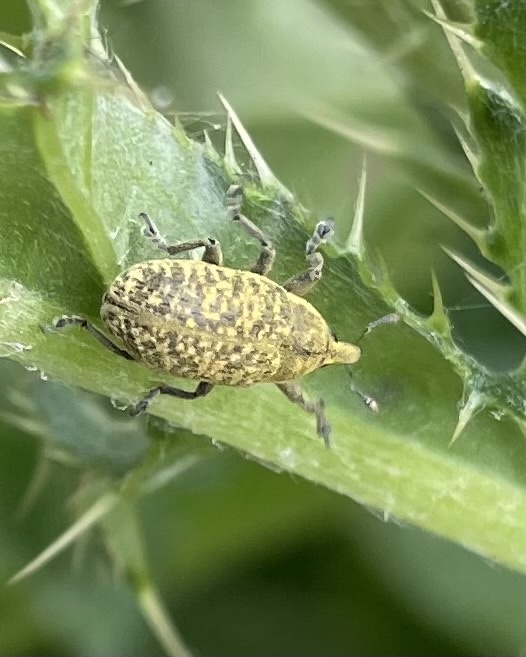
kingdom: Animalia
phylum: Arthropoda
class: Insecta
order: Coleoptera
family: Curculionidae
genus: Larinus
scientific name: Larinus carlinae
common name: Weevil
